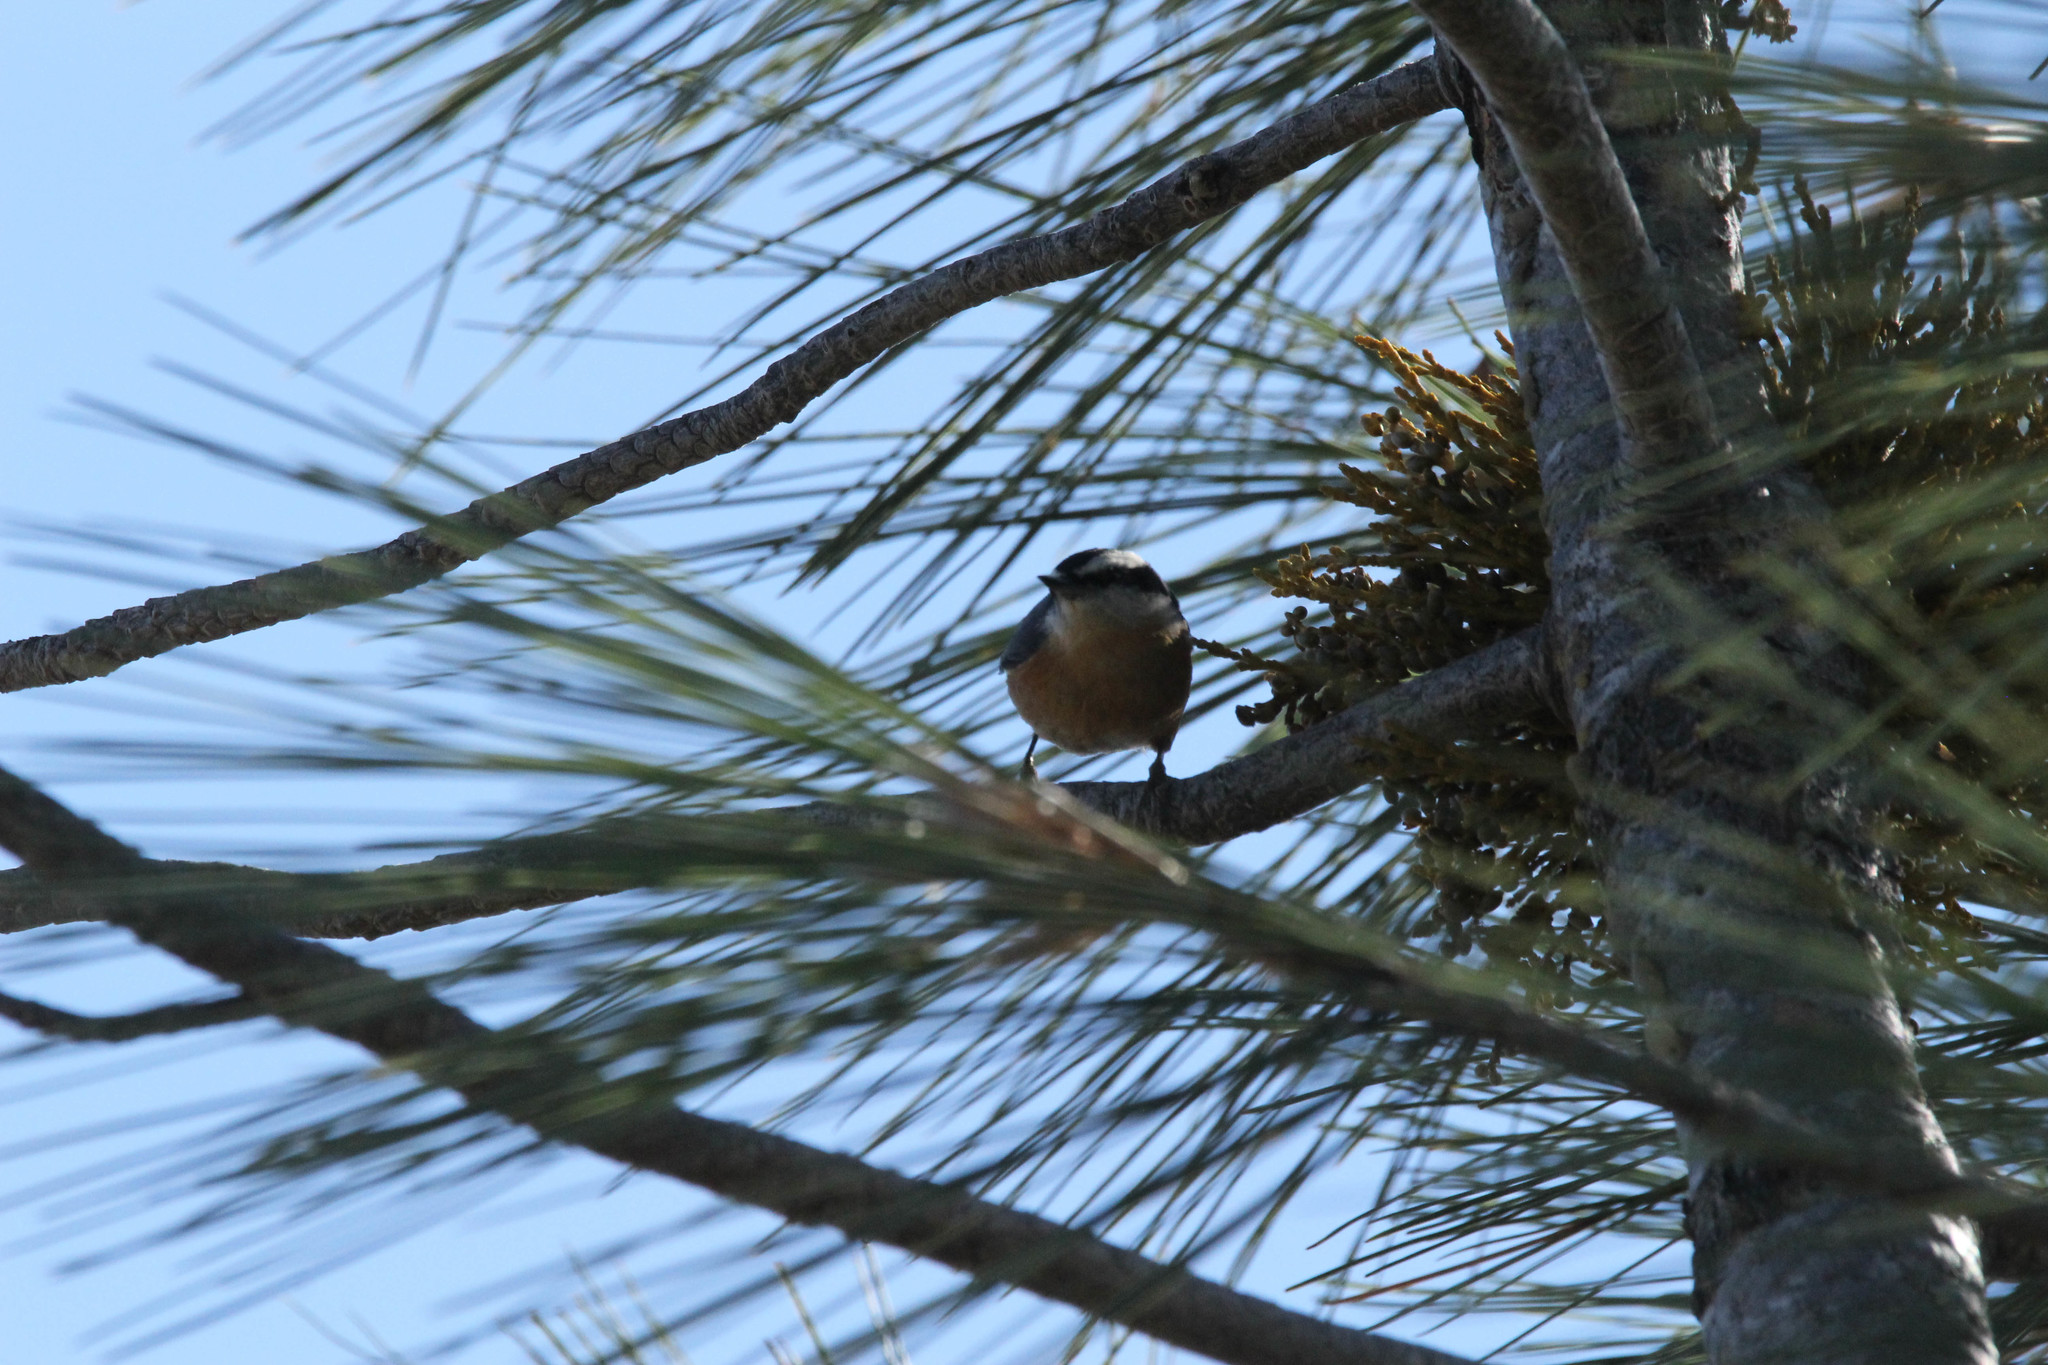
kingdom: Animalia
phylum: Chordata
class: Aves
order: Passeriformes
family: Sittidae
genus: Sitta
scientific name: Sitta canadensis
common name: Red-breasted nuthatch
